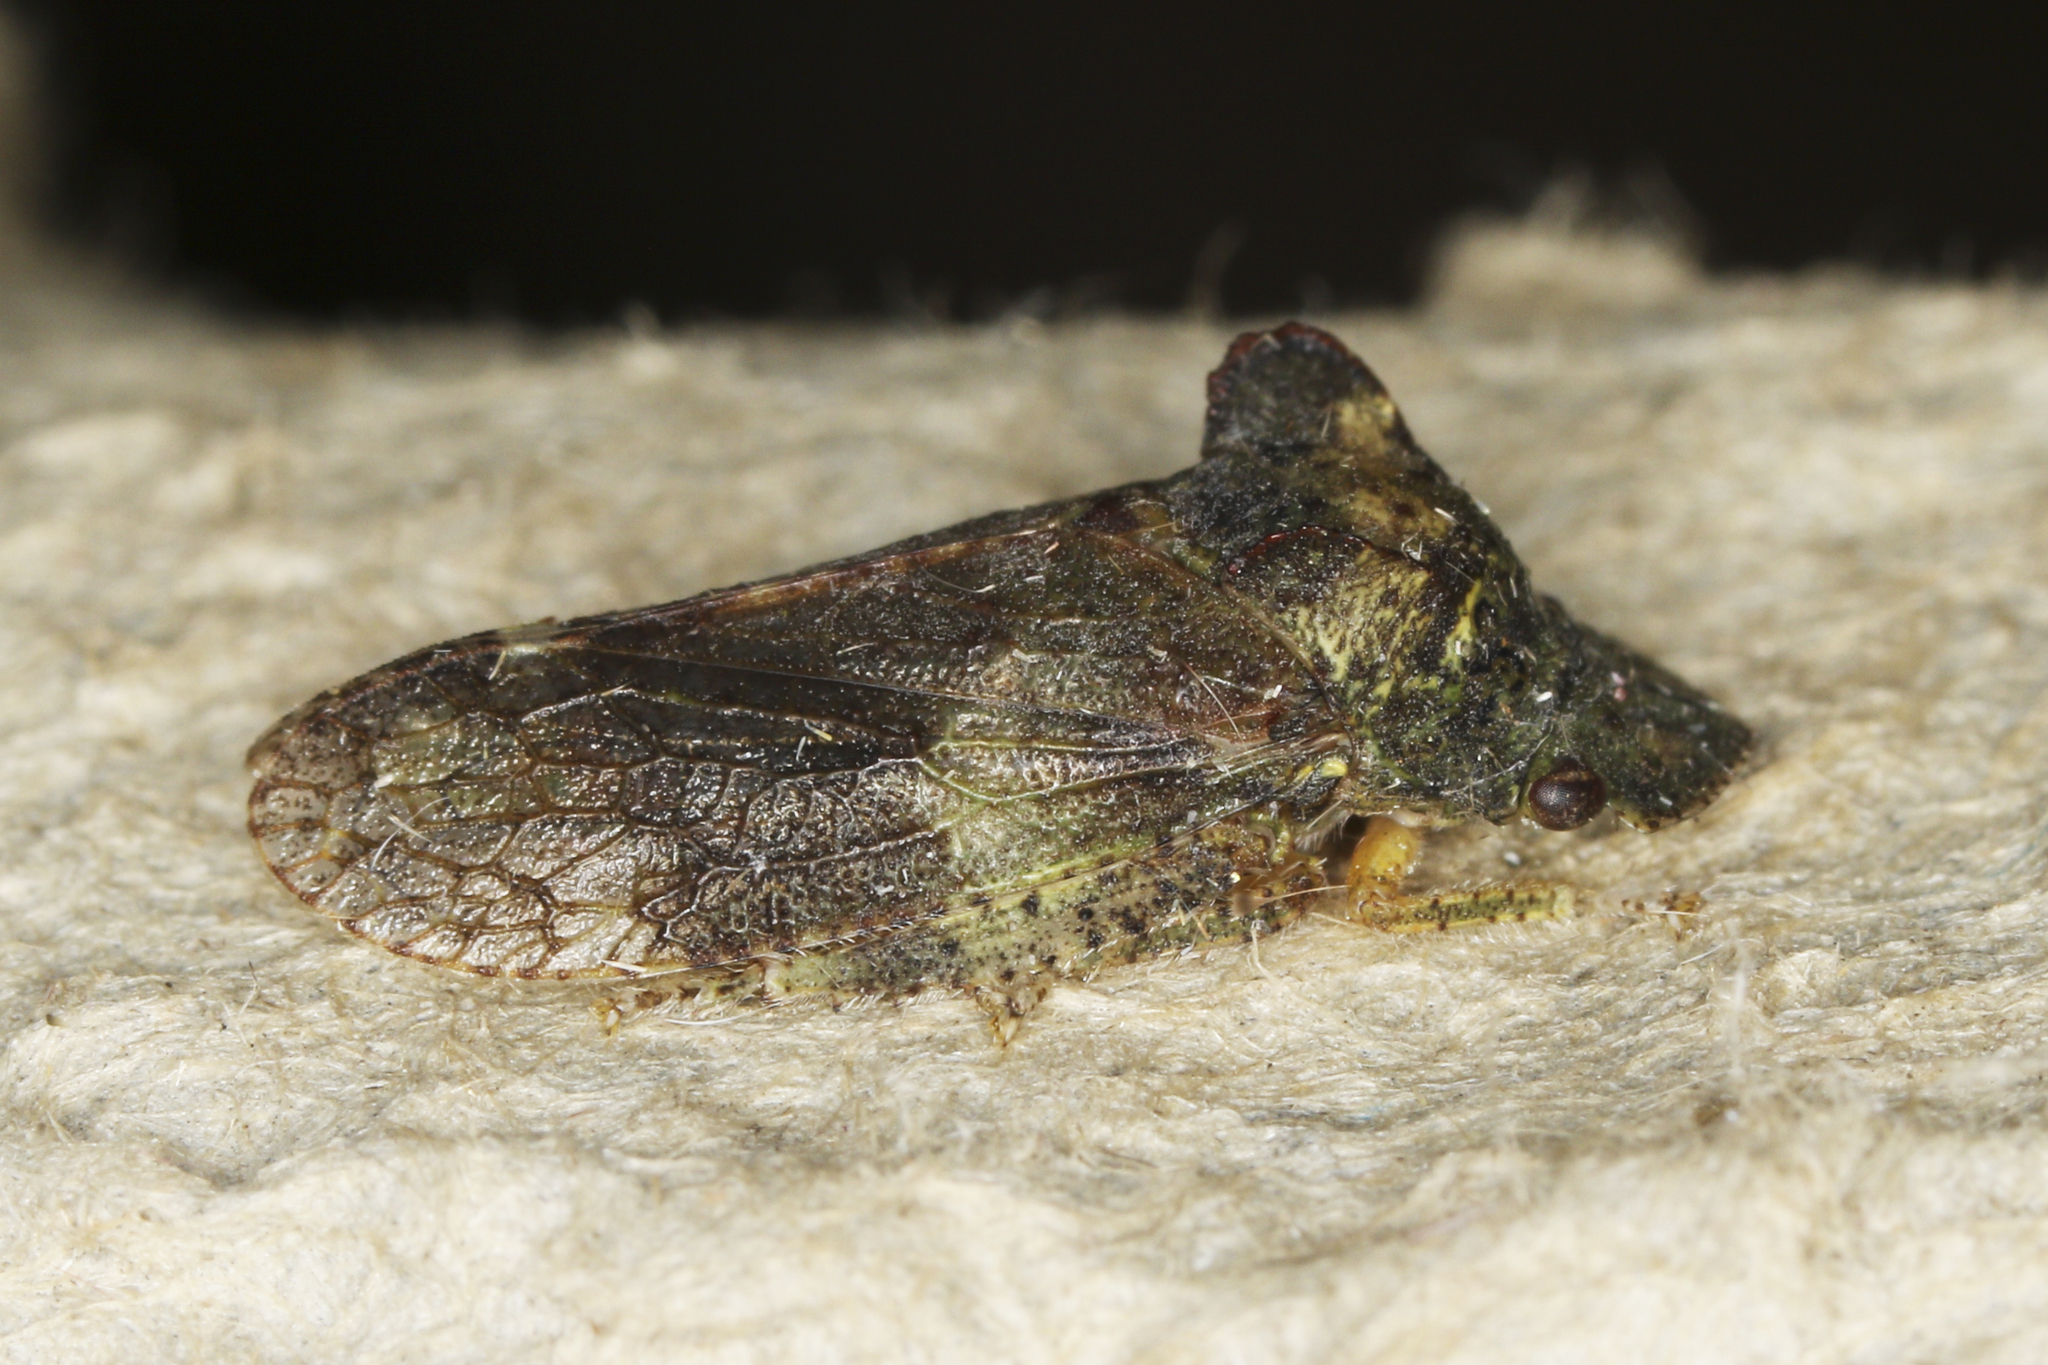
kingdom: Animalia
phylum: Arthropoda
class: Insecta
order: Hemiptera
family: Cicadellidae
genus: Ledra
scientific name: Ledra aurita
